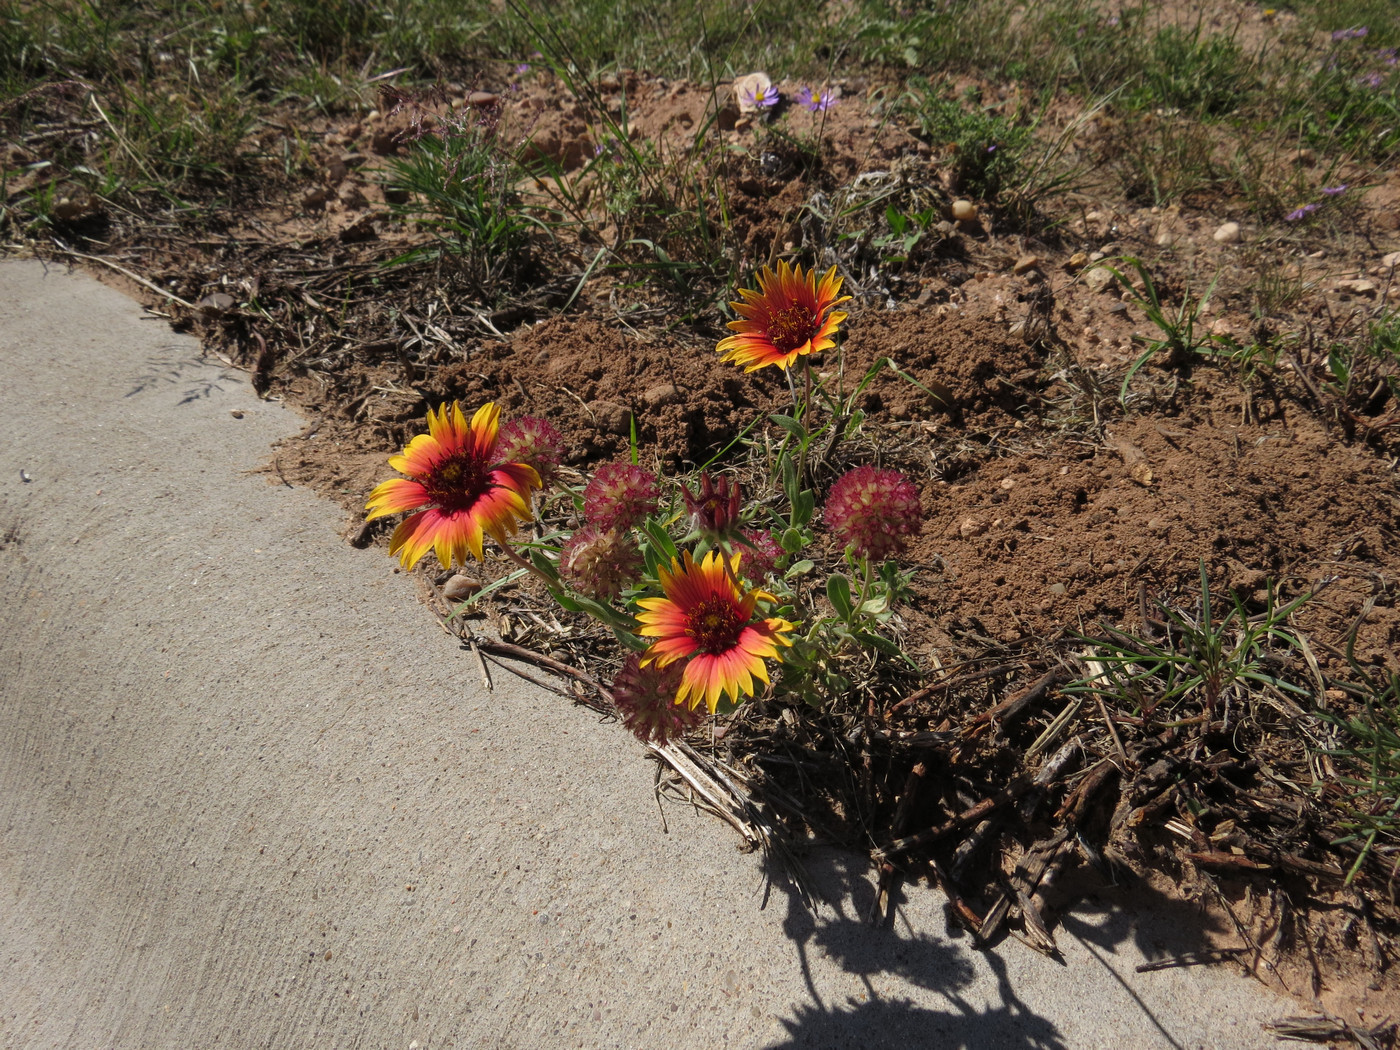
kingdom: Plantae
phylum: Tracheophyta
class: Magnoliopsida
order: Asterales
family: Asteraceae
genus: Gaillardia
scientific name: Gaillardia pulchella
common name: Firewheel
